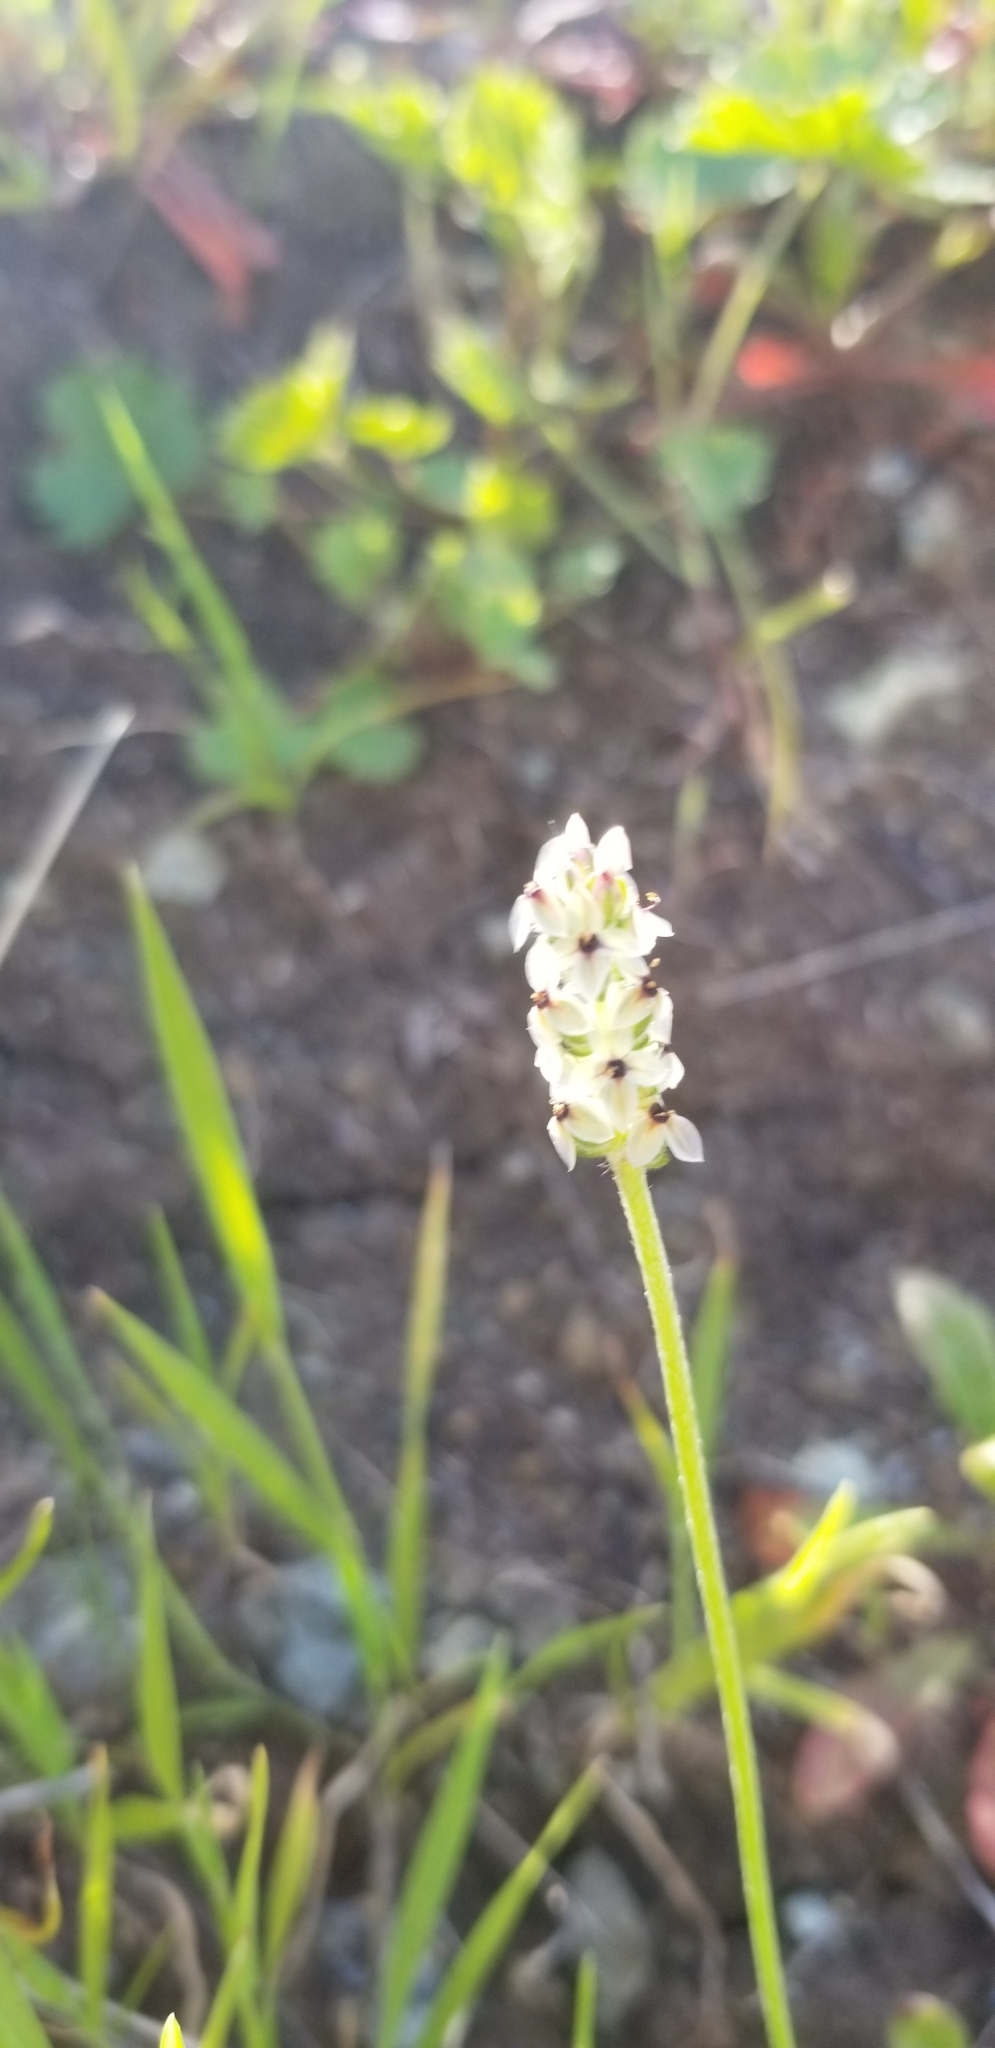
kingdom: Plantae
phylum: Tracheophyta
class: Magnoliopsida
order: Lamiales
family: Plantaginaceae
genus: Plantago
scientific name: Plantago erecta
